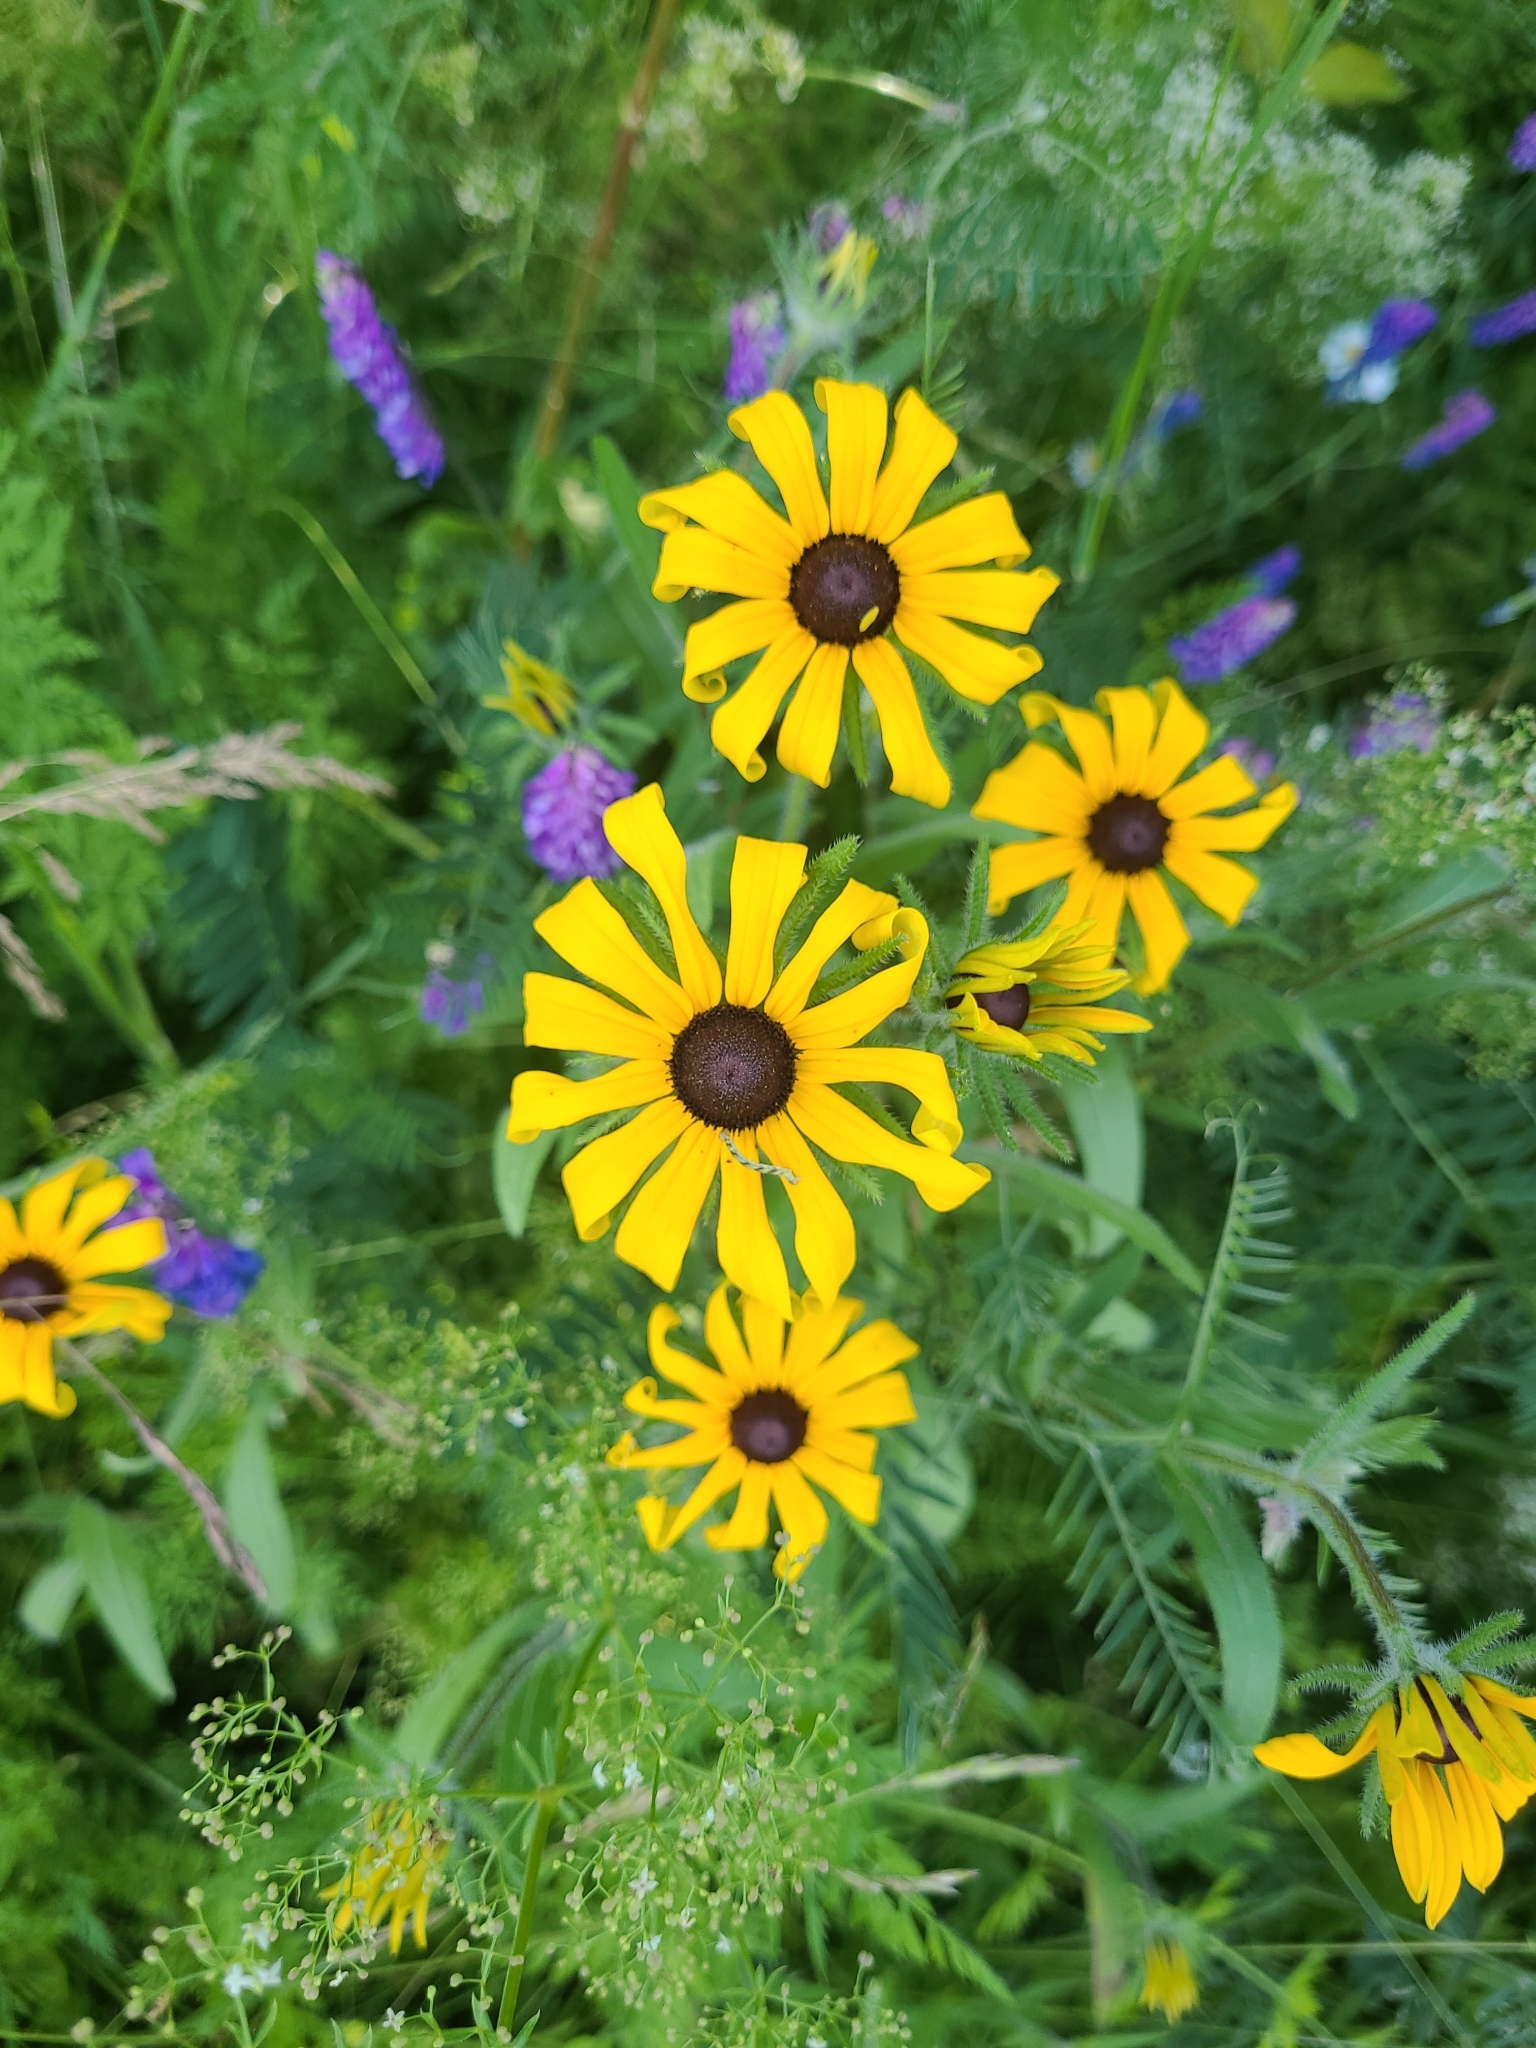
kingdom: Plantae
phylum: Tracheophyta
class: Magnoliopsida
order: Asterales
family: Asteraceae
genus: Rudbeckia
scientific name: Rudbeckia hirta
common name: Black-eyed-susan
